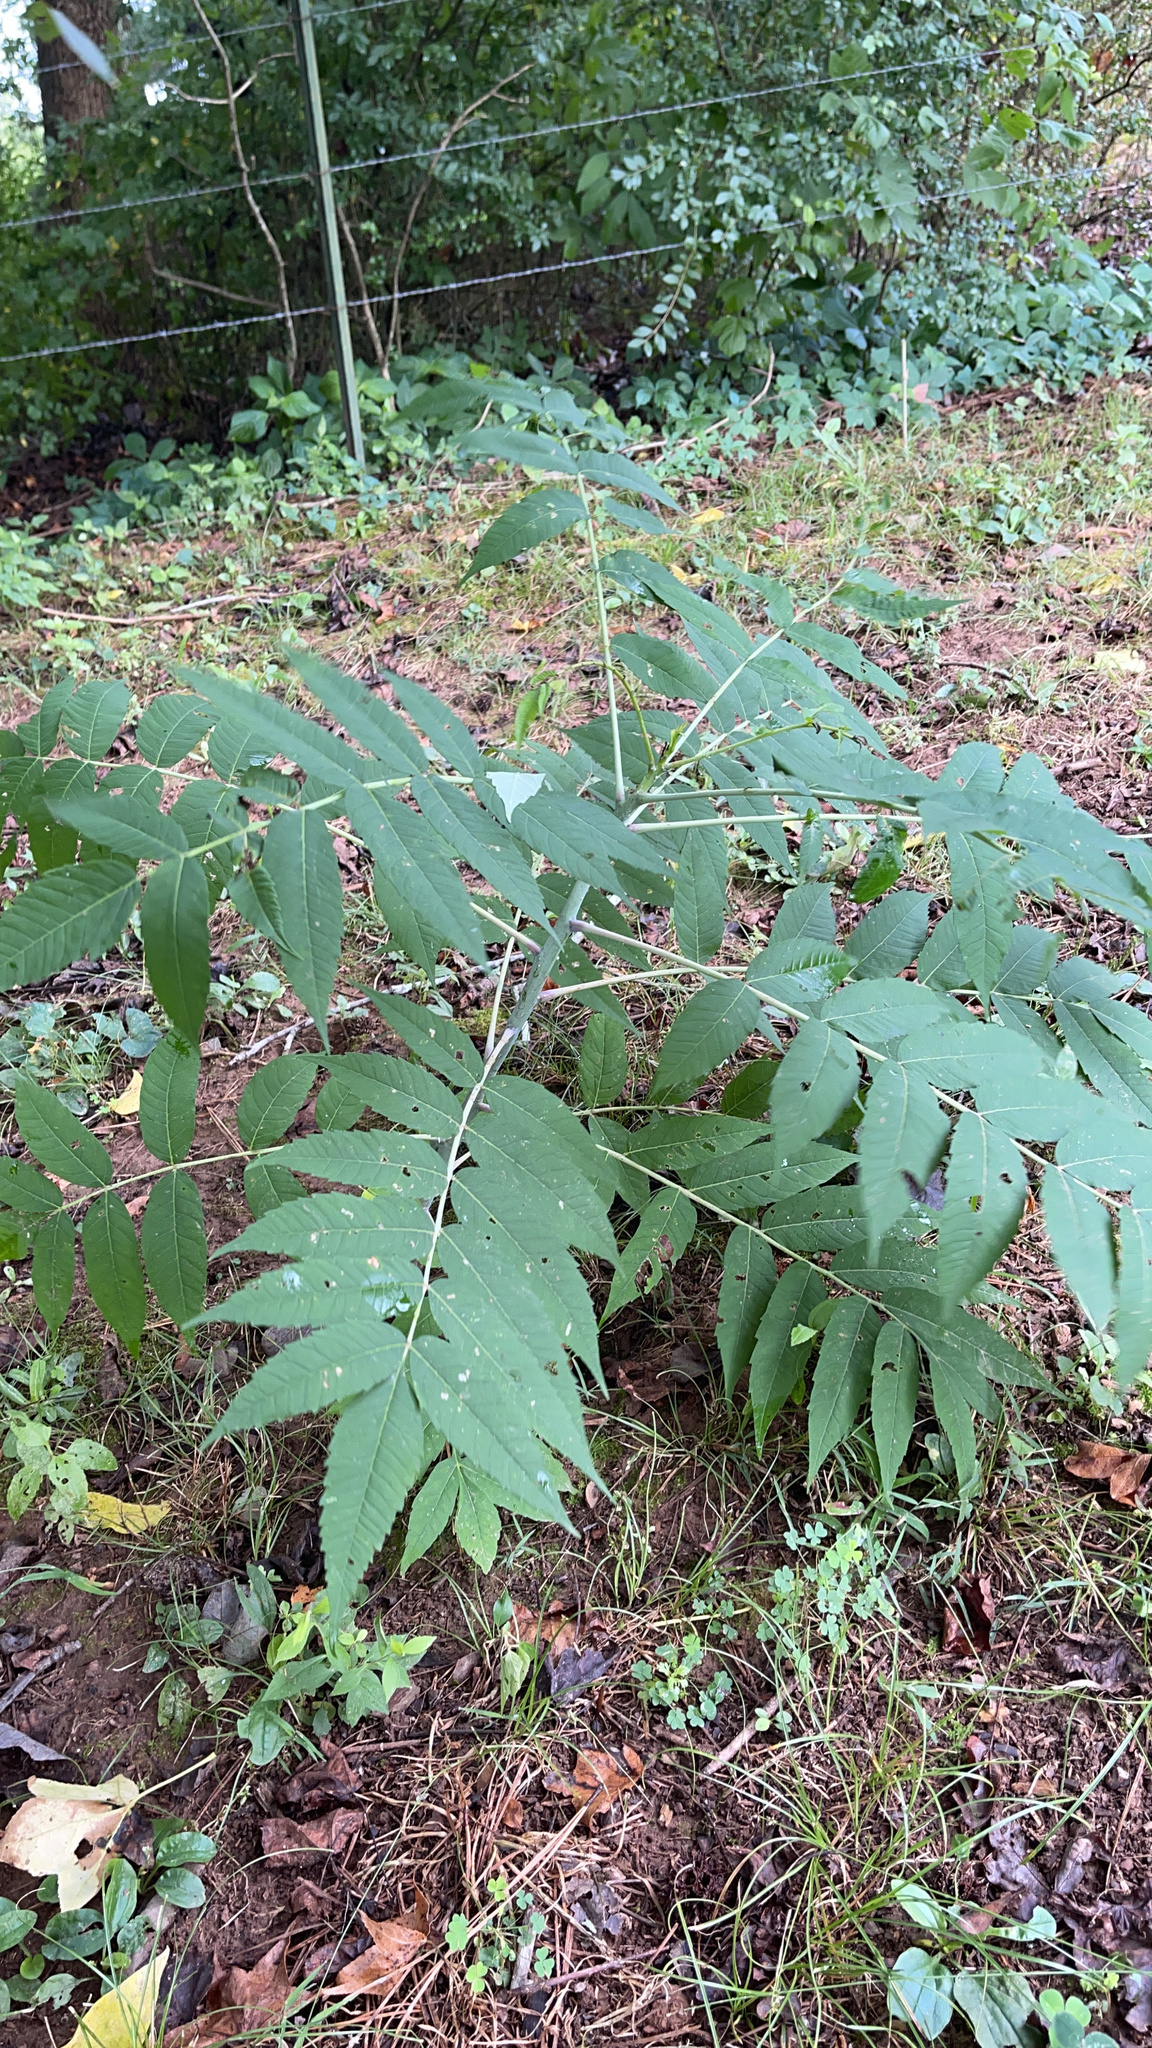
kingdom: Plantae
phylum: Tracheophyta
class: Magnoliopsida
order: Sapindales
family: Anacardiaceae
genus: Rhus
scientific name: Rhus glabra
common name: Scarlet sumac
